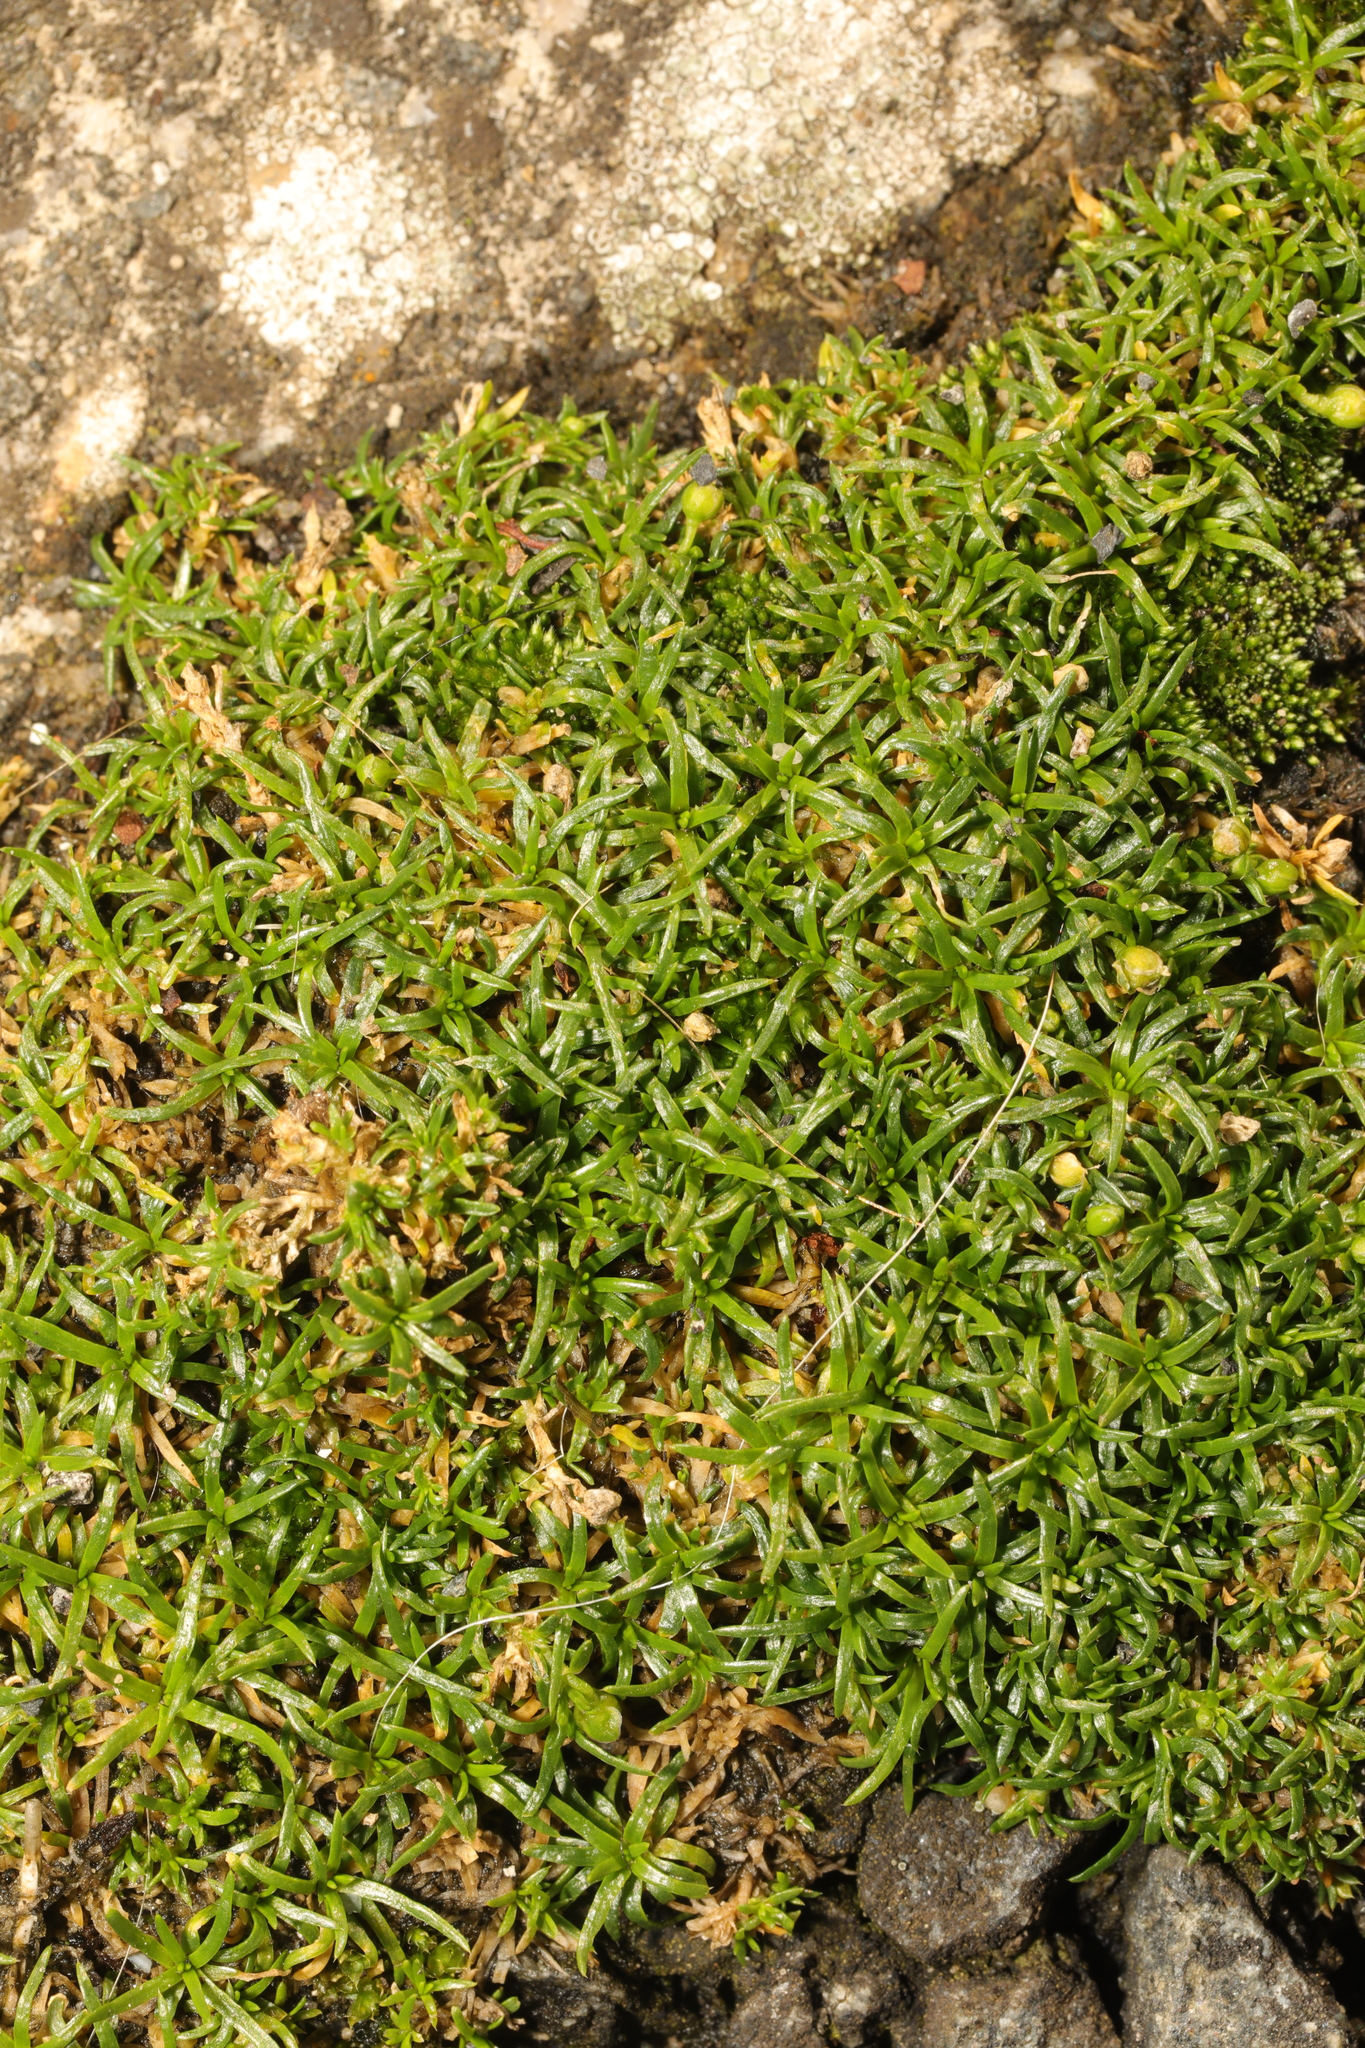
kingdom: Plantae
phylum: Tracheophyta
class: Magnoliopsida
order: Caryophyllales
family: Caryophyllaceae
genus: Sagina
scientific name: Sagina procumbens
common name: Procumbent pearlwort
